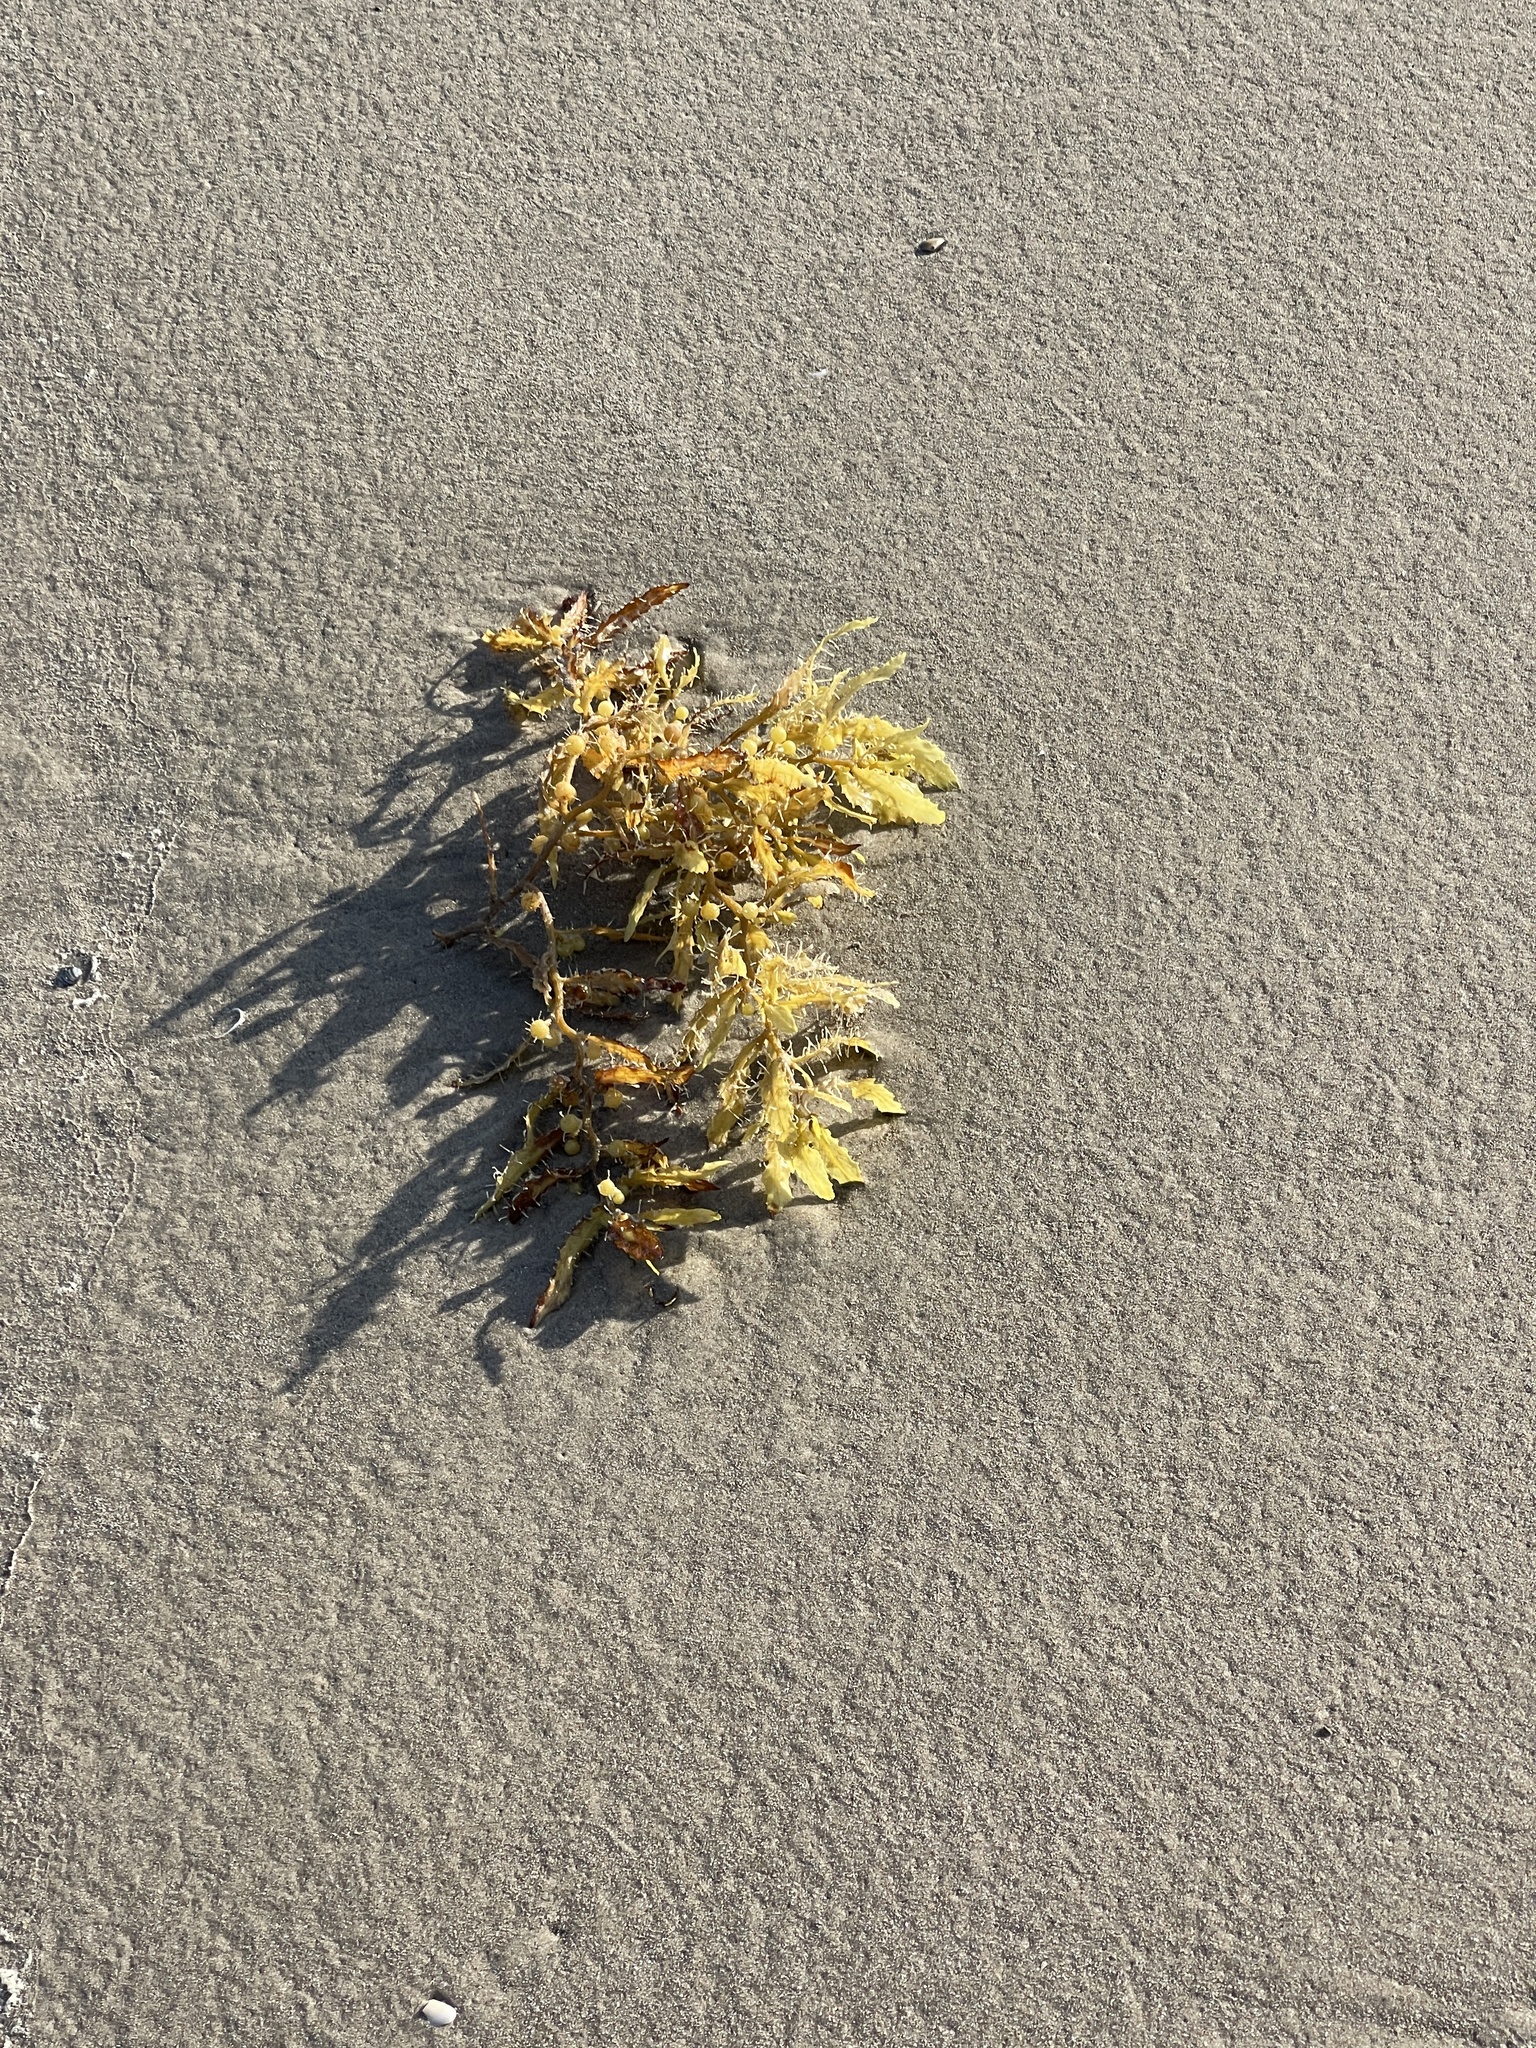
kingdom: Chromista
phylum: Ochrophyta
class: Phaeophyceae
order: Fucales
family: Sargassaceae
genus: Sargassum
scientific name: Sargassum fluitans
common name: Sargassum seaweed
